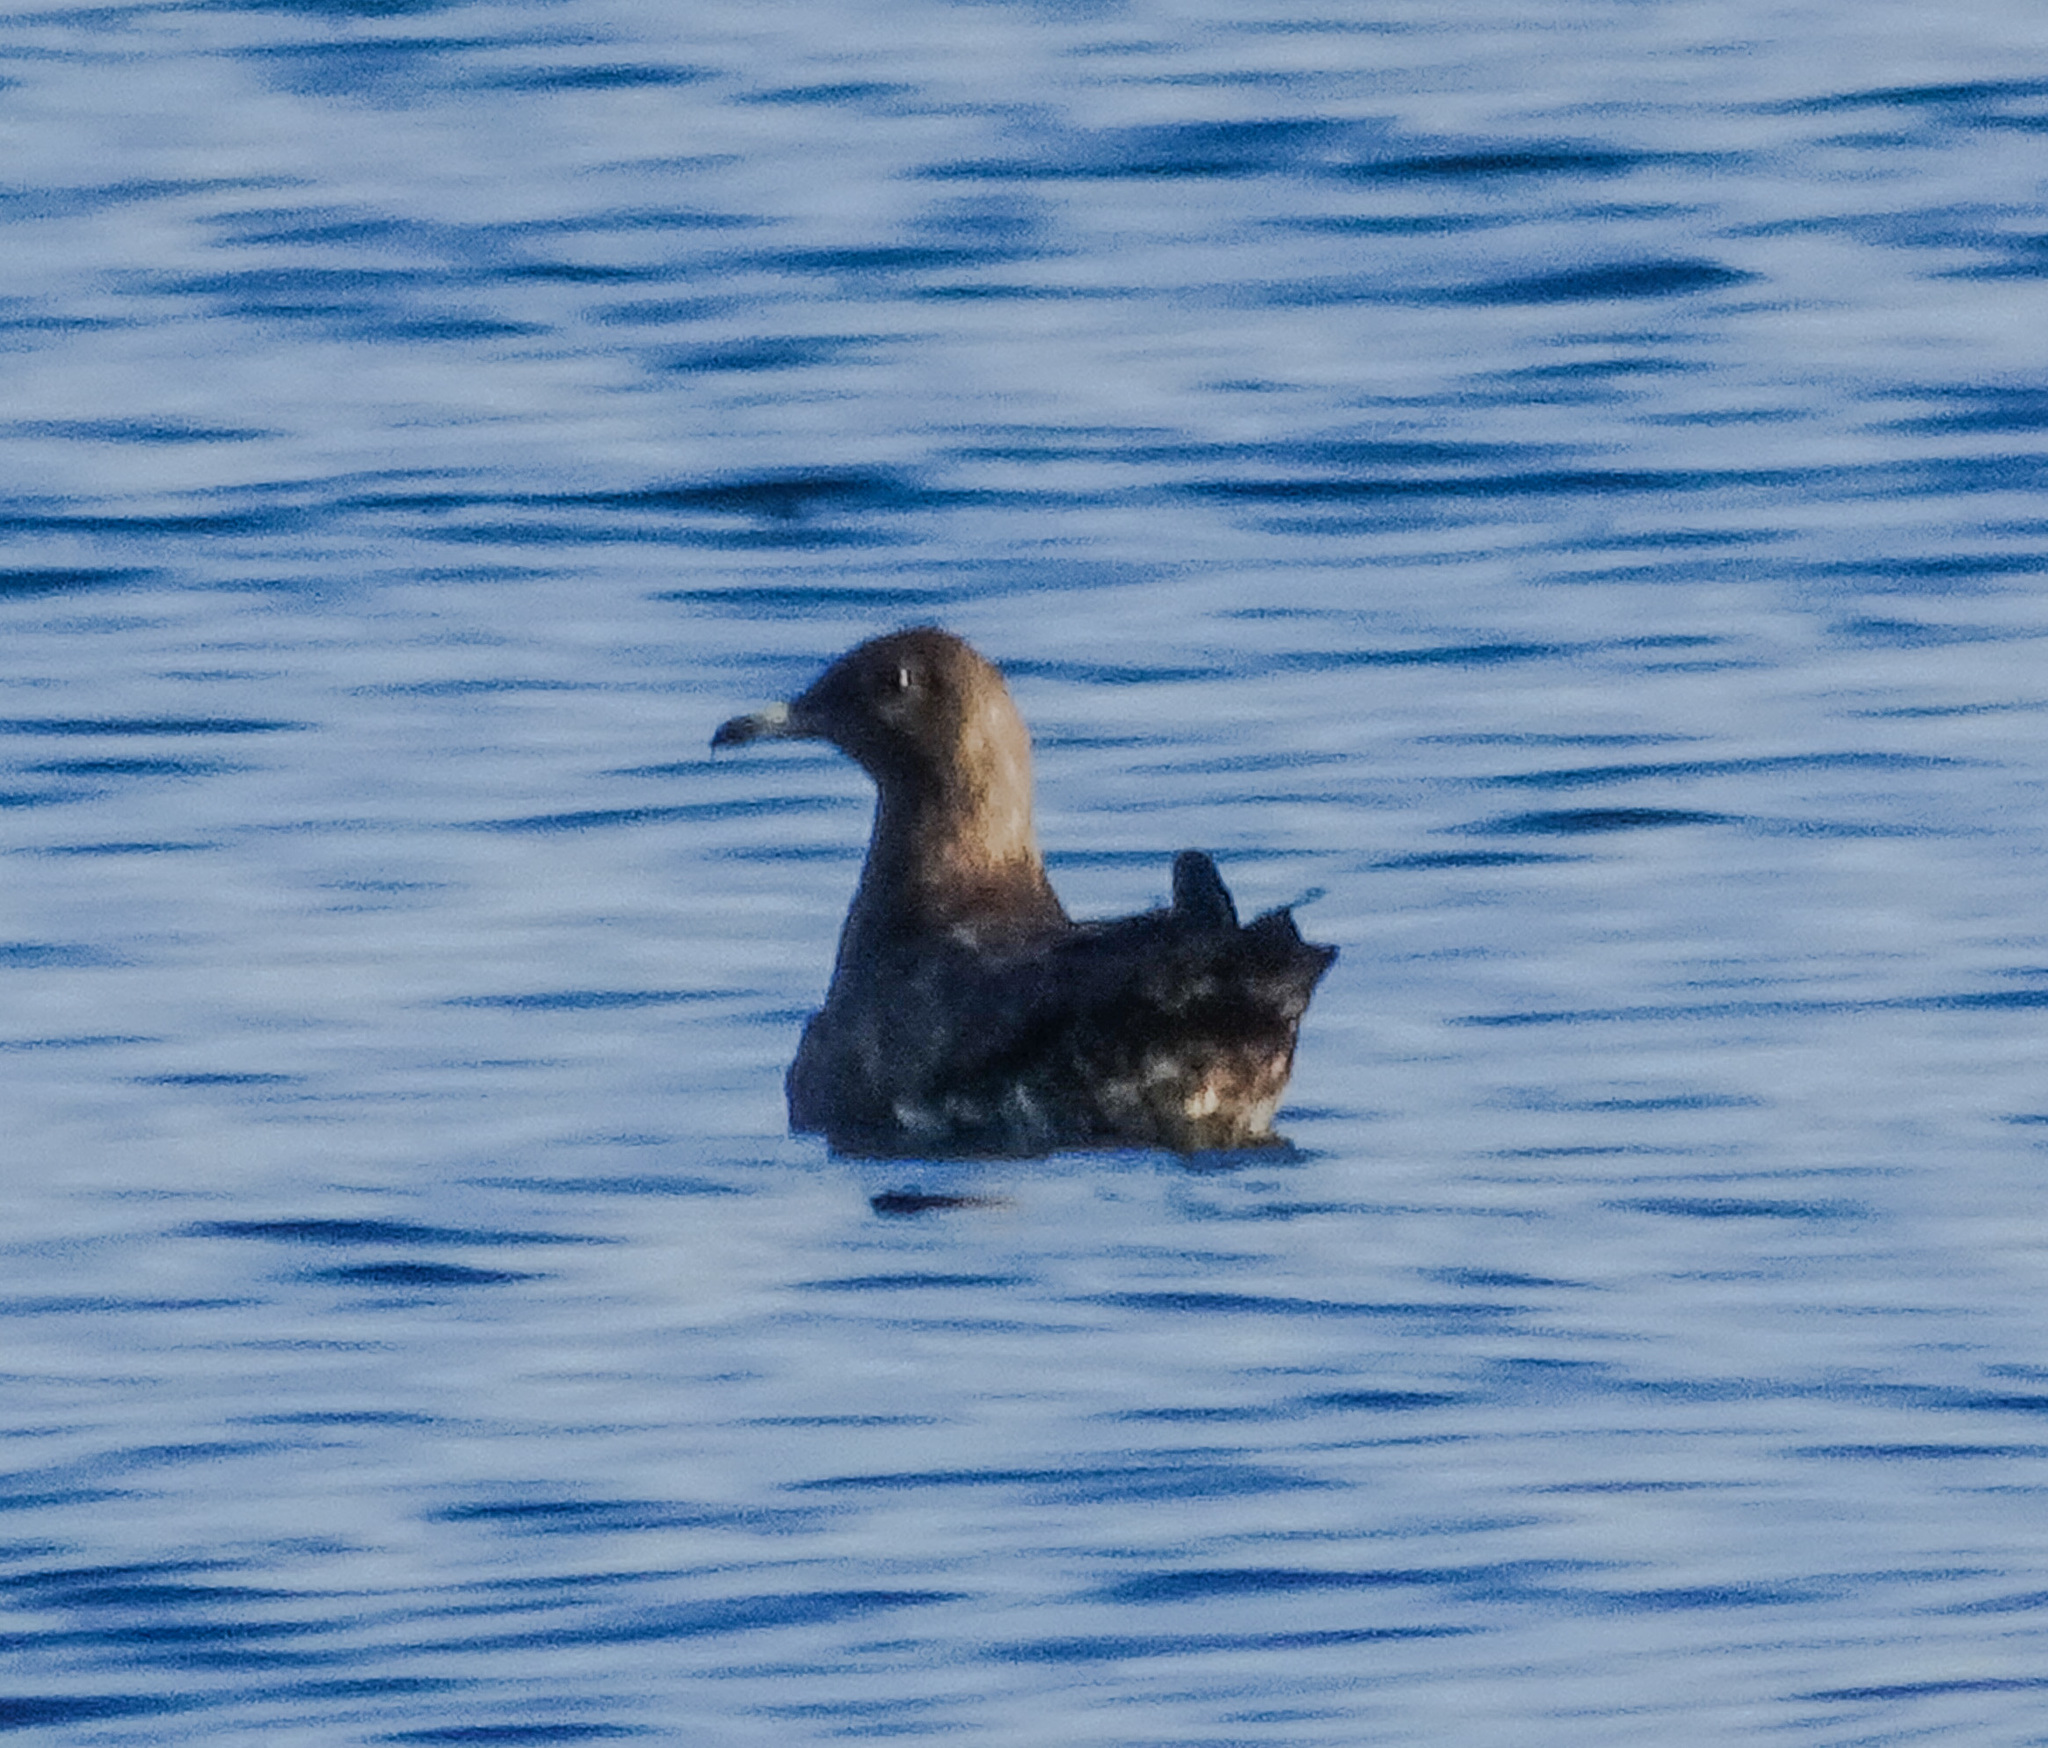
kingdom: Animalia
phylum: Chordata
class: Aves
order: Charadriiformes
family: Stercorariidae
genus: Stercorarius
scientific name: Stercorarius parasiticus
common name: Parasitic jaeger
